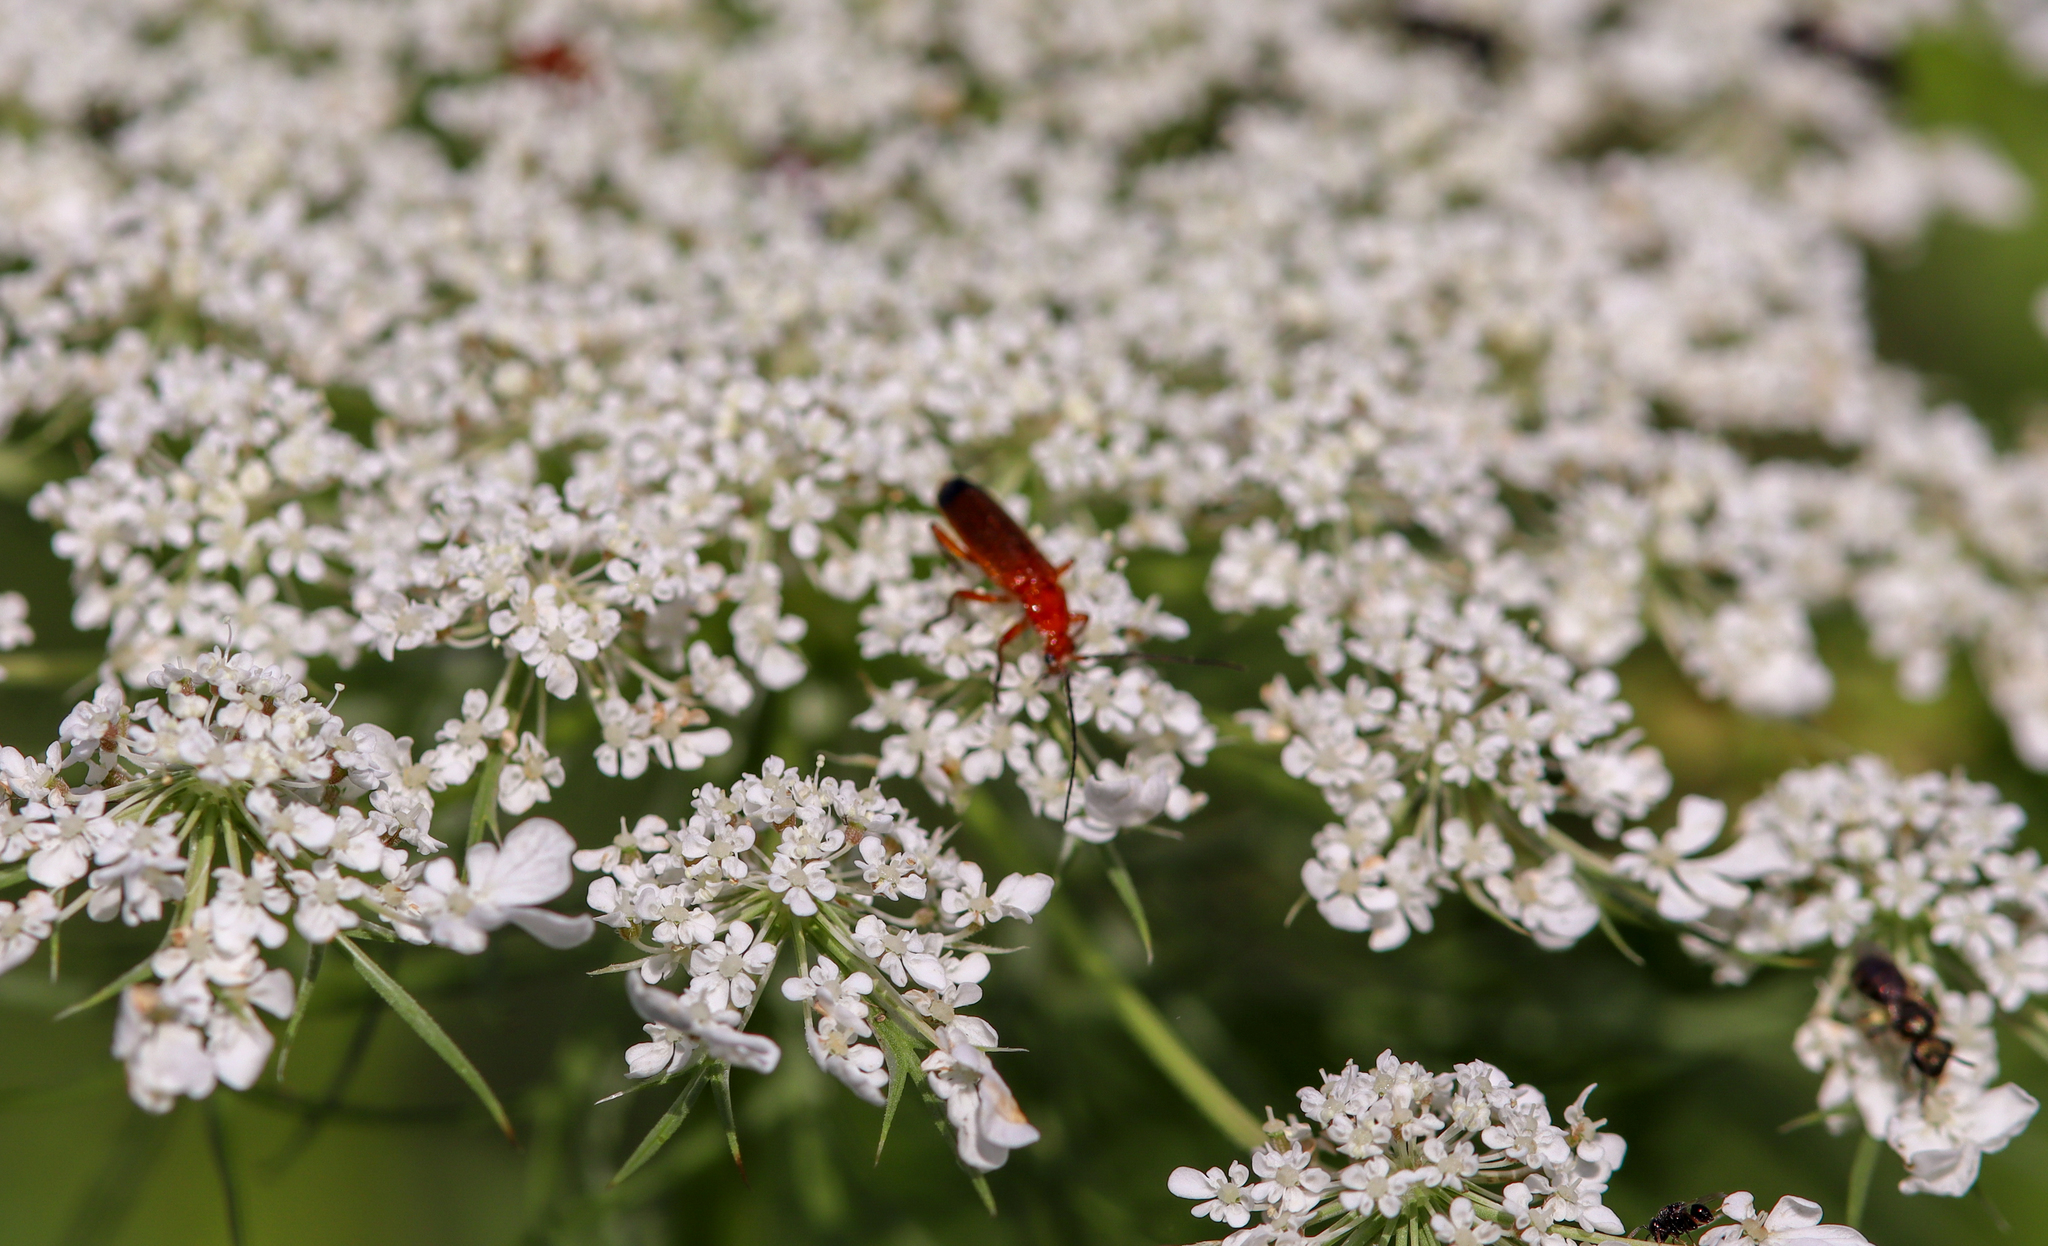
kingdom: Animalia
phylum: Arthropoda
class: Insecta
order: Coleoptera
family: Cantharidae
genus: Rhagonycha
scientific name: Rhagonycha fulva
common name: Common red soldier beetle
